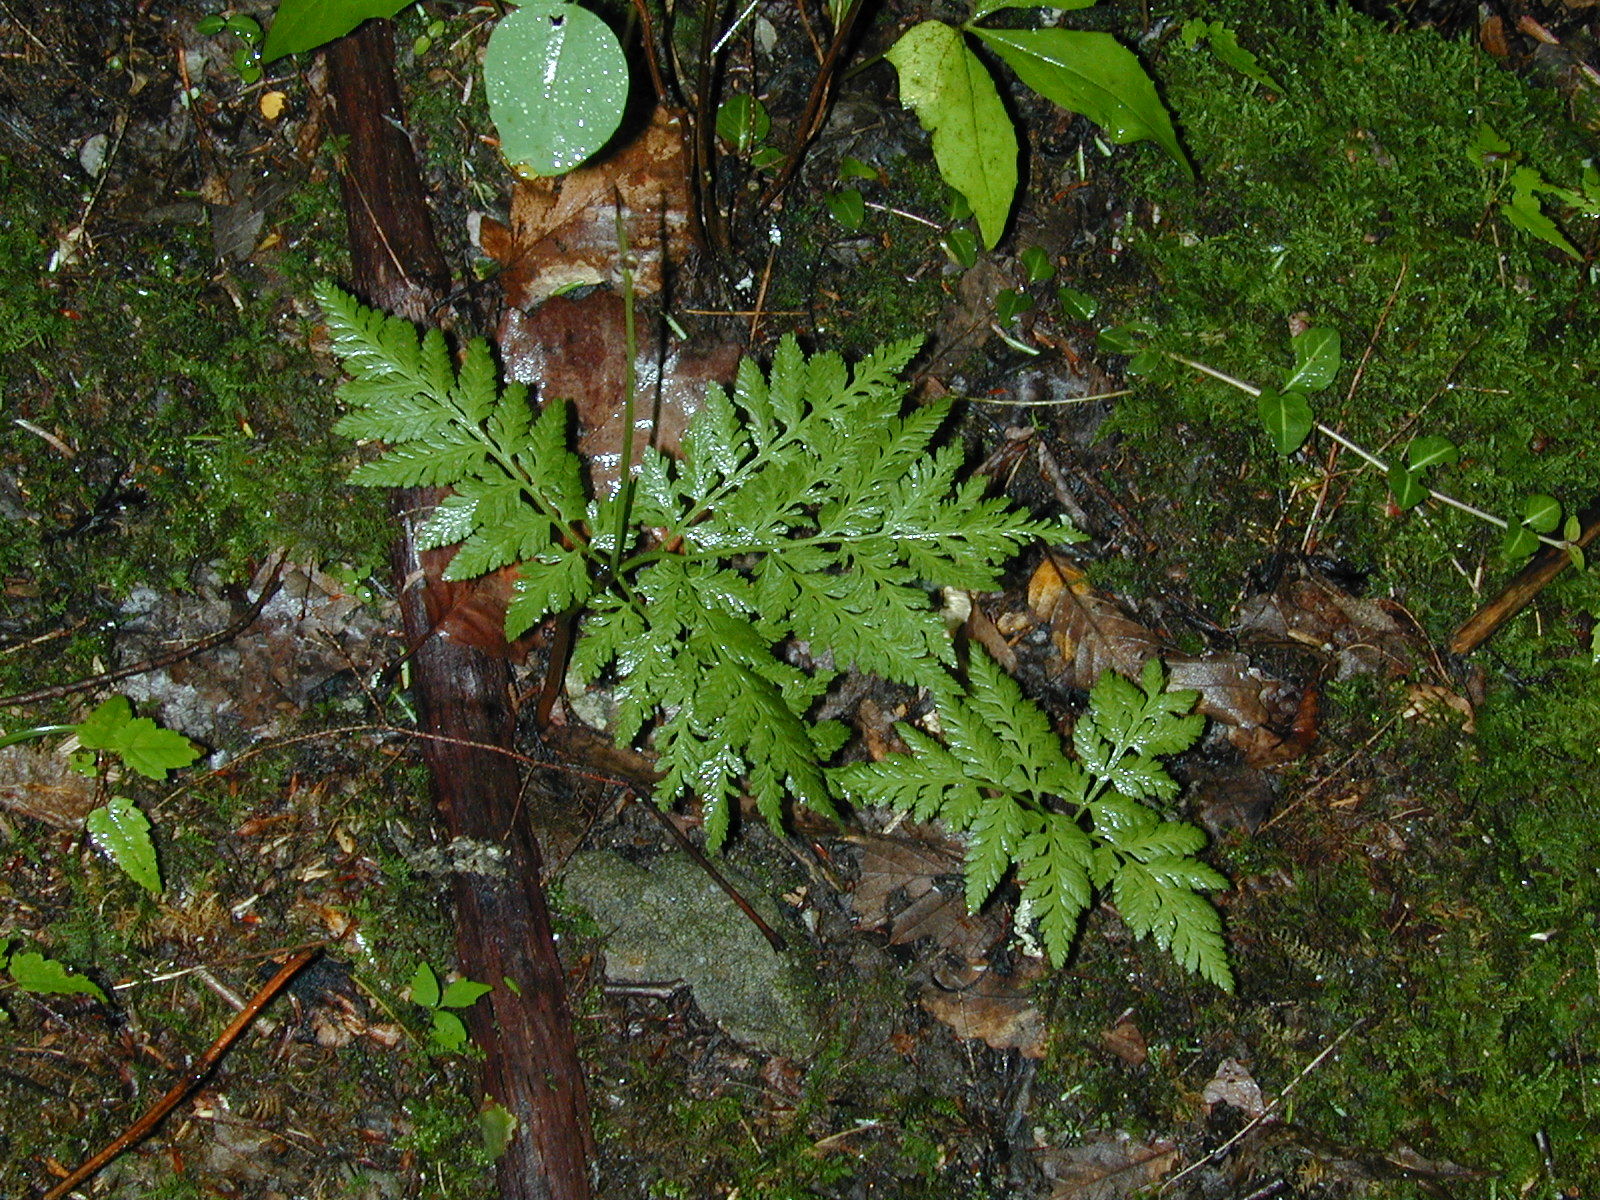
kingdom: Plantae
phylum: Tracheophyta
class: Polypodiopsida
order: Ophioglossales
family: Ophioglossaceae
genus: Botrypus
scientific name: Botrypus virginianus
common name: Common grapefern
